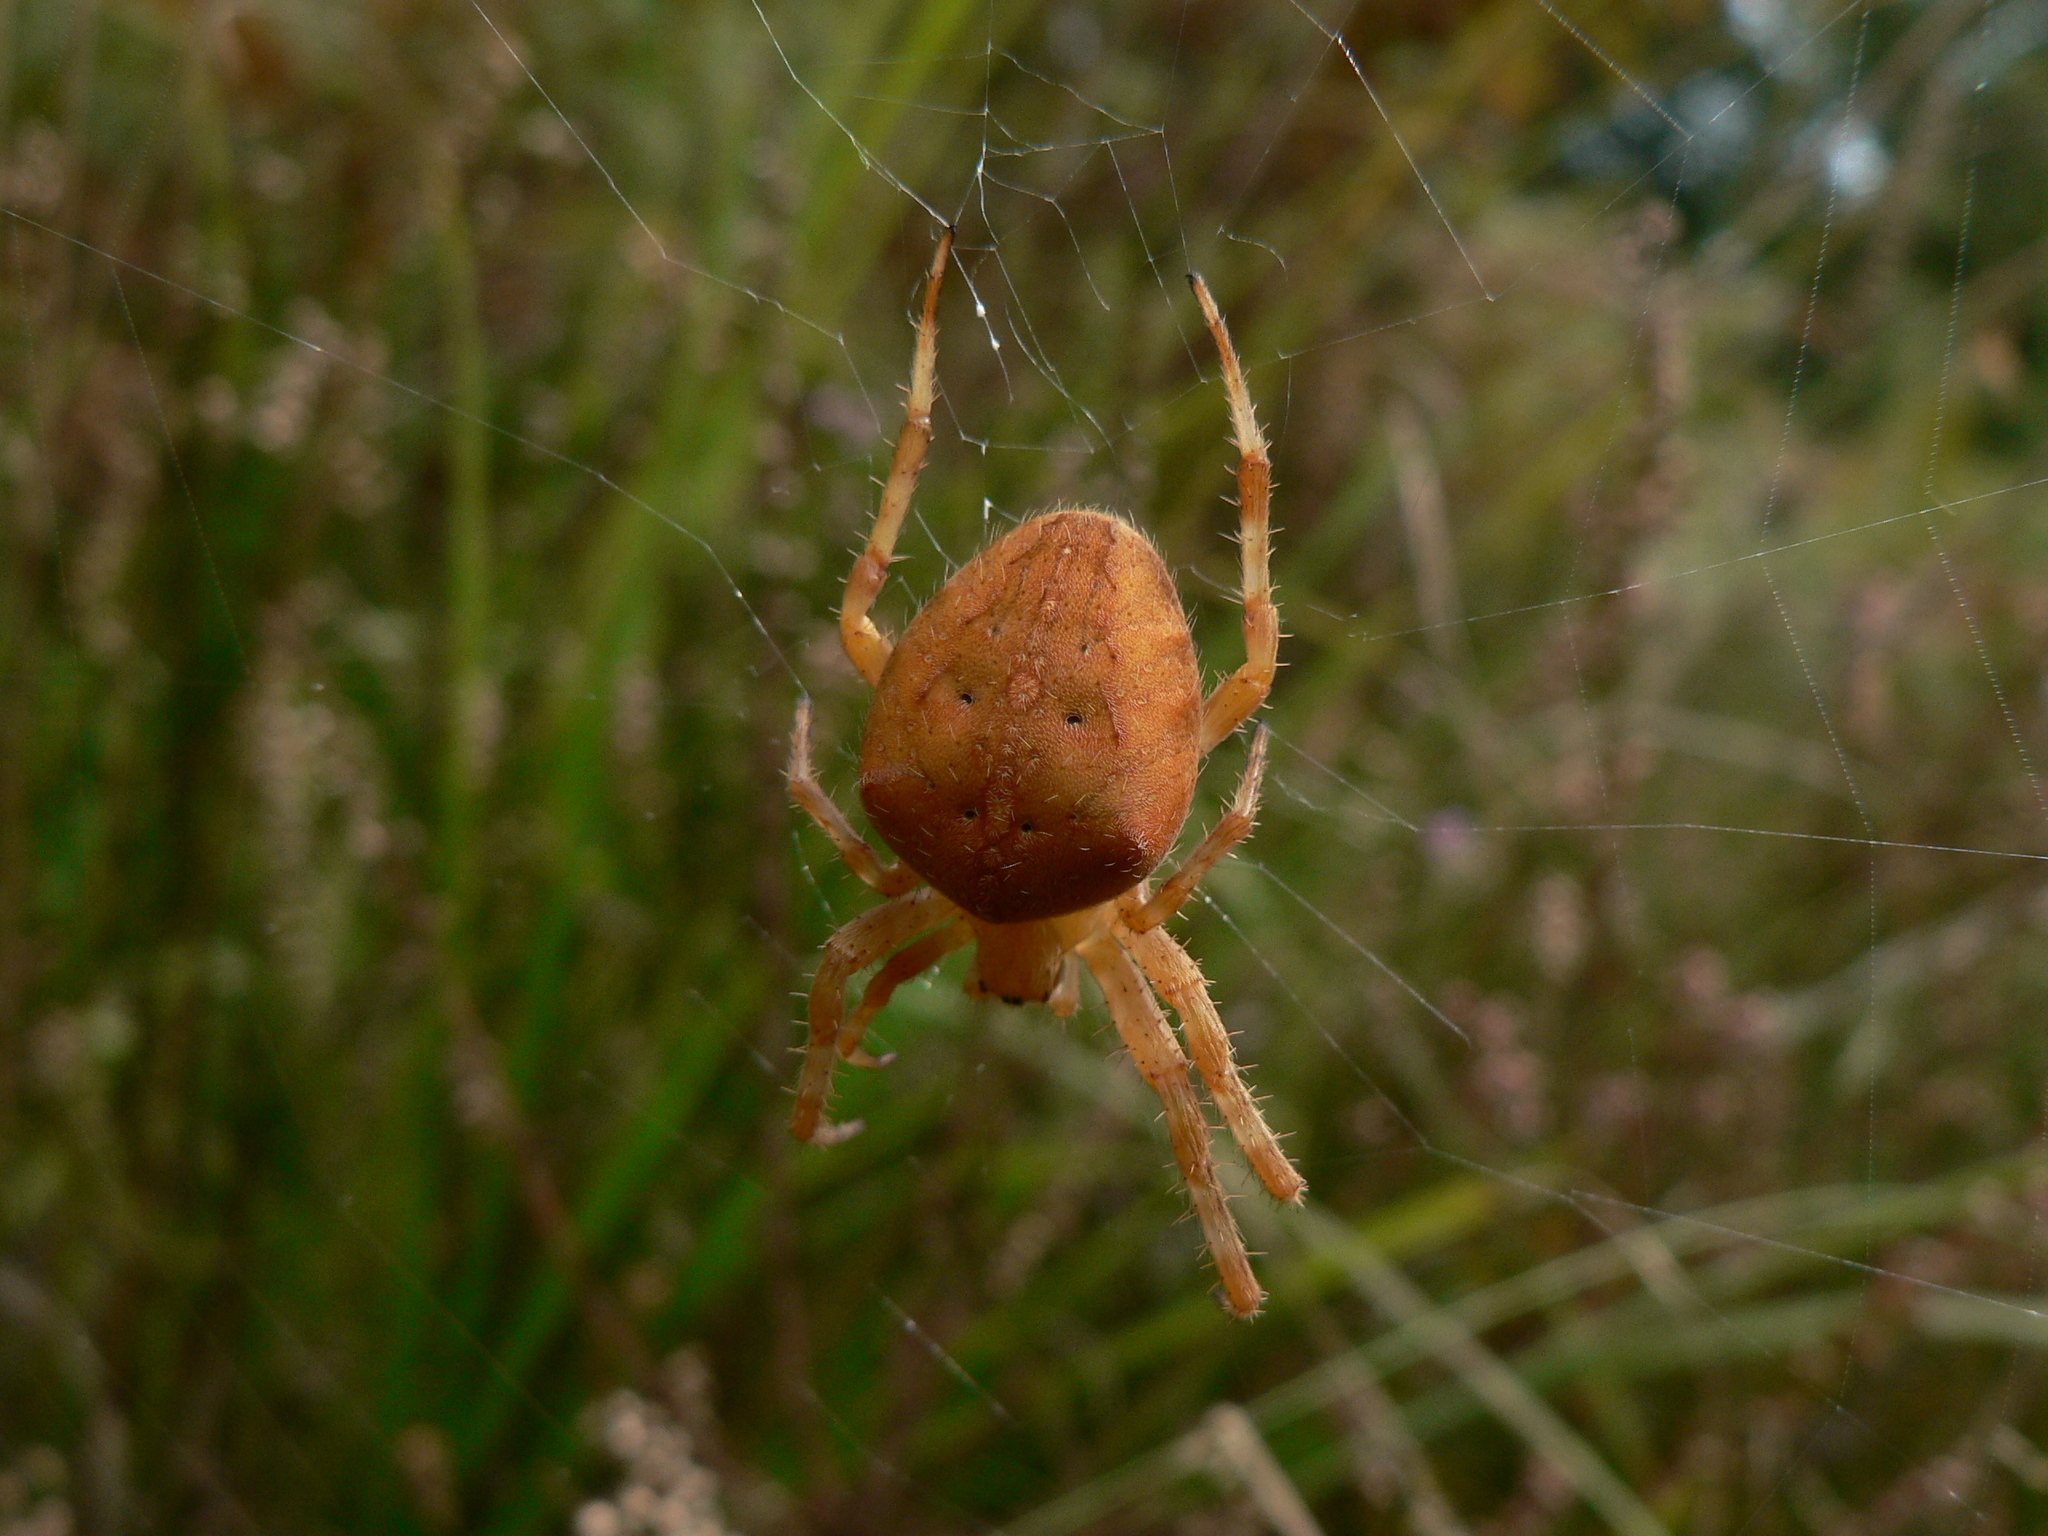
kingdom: Animalia
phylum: Arthropoda
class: Arachnida
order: Araneae
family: Araneidae
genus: Araneus
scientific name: Araneus diadematus
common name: Cross orbweaver
